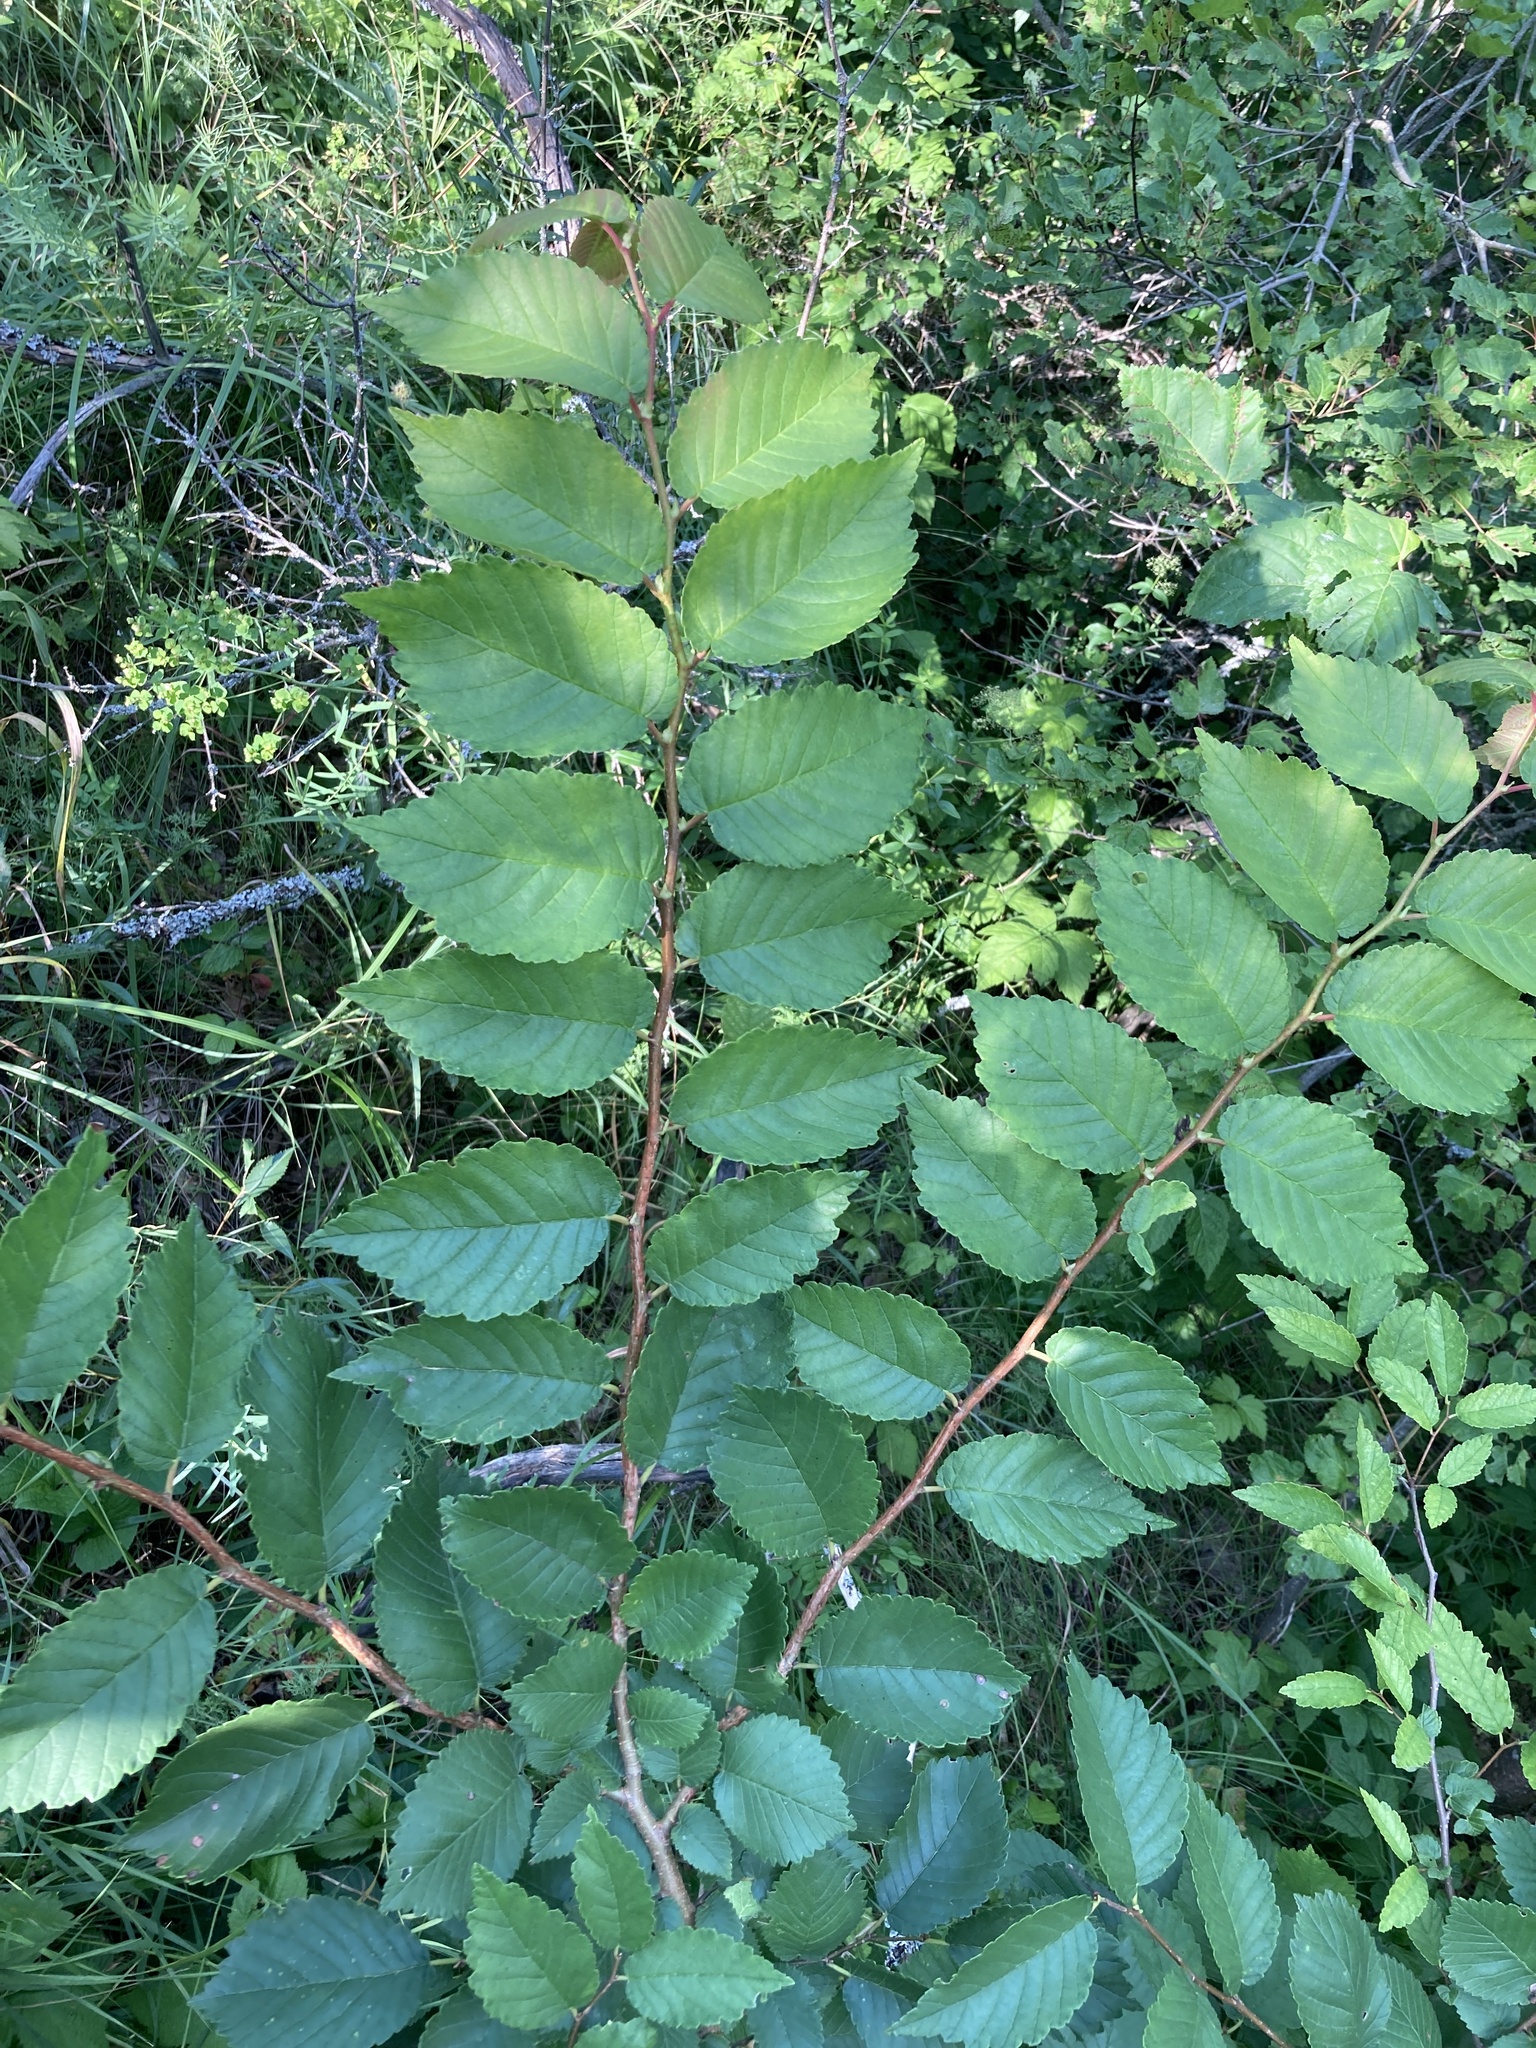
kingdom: Plantae
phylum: Tracheophyta
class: Magnoliopsida
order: Rosales
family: Ulmaceae
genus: Ulmus
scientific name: Ulmus minor
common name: Small-leaved elm
